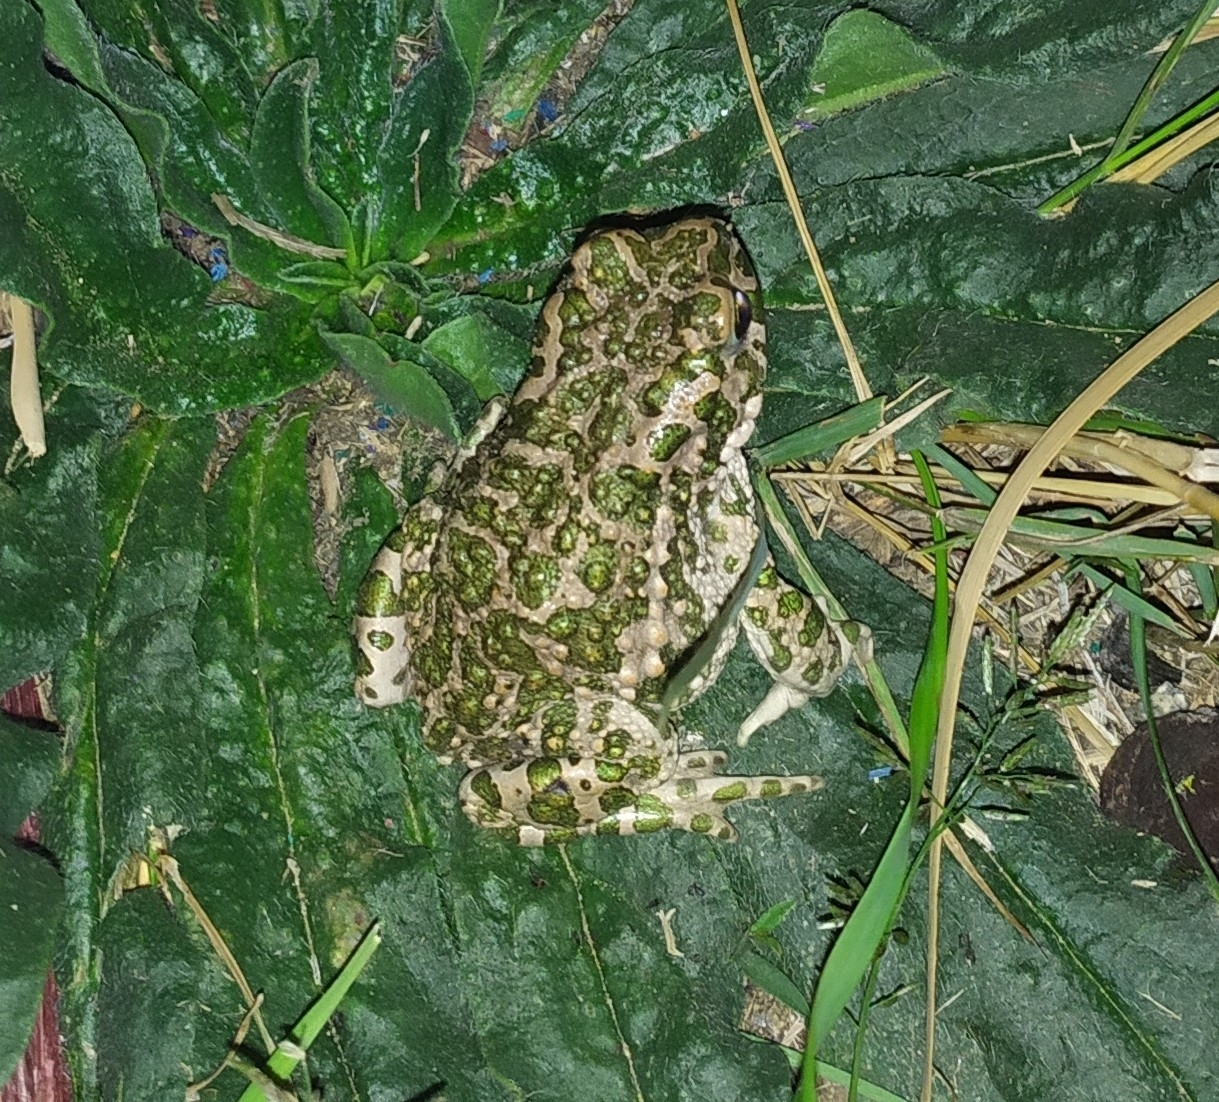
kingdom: Animalia
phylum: Chordata
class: Amphibia
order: Anura
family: Bufonidae
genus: Bufotes
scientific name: Bufotes viridis
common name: European green toad
